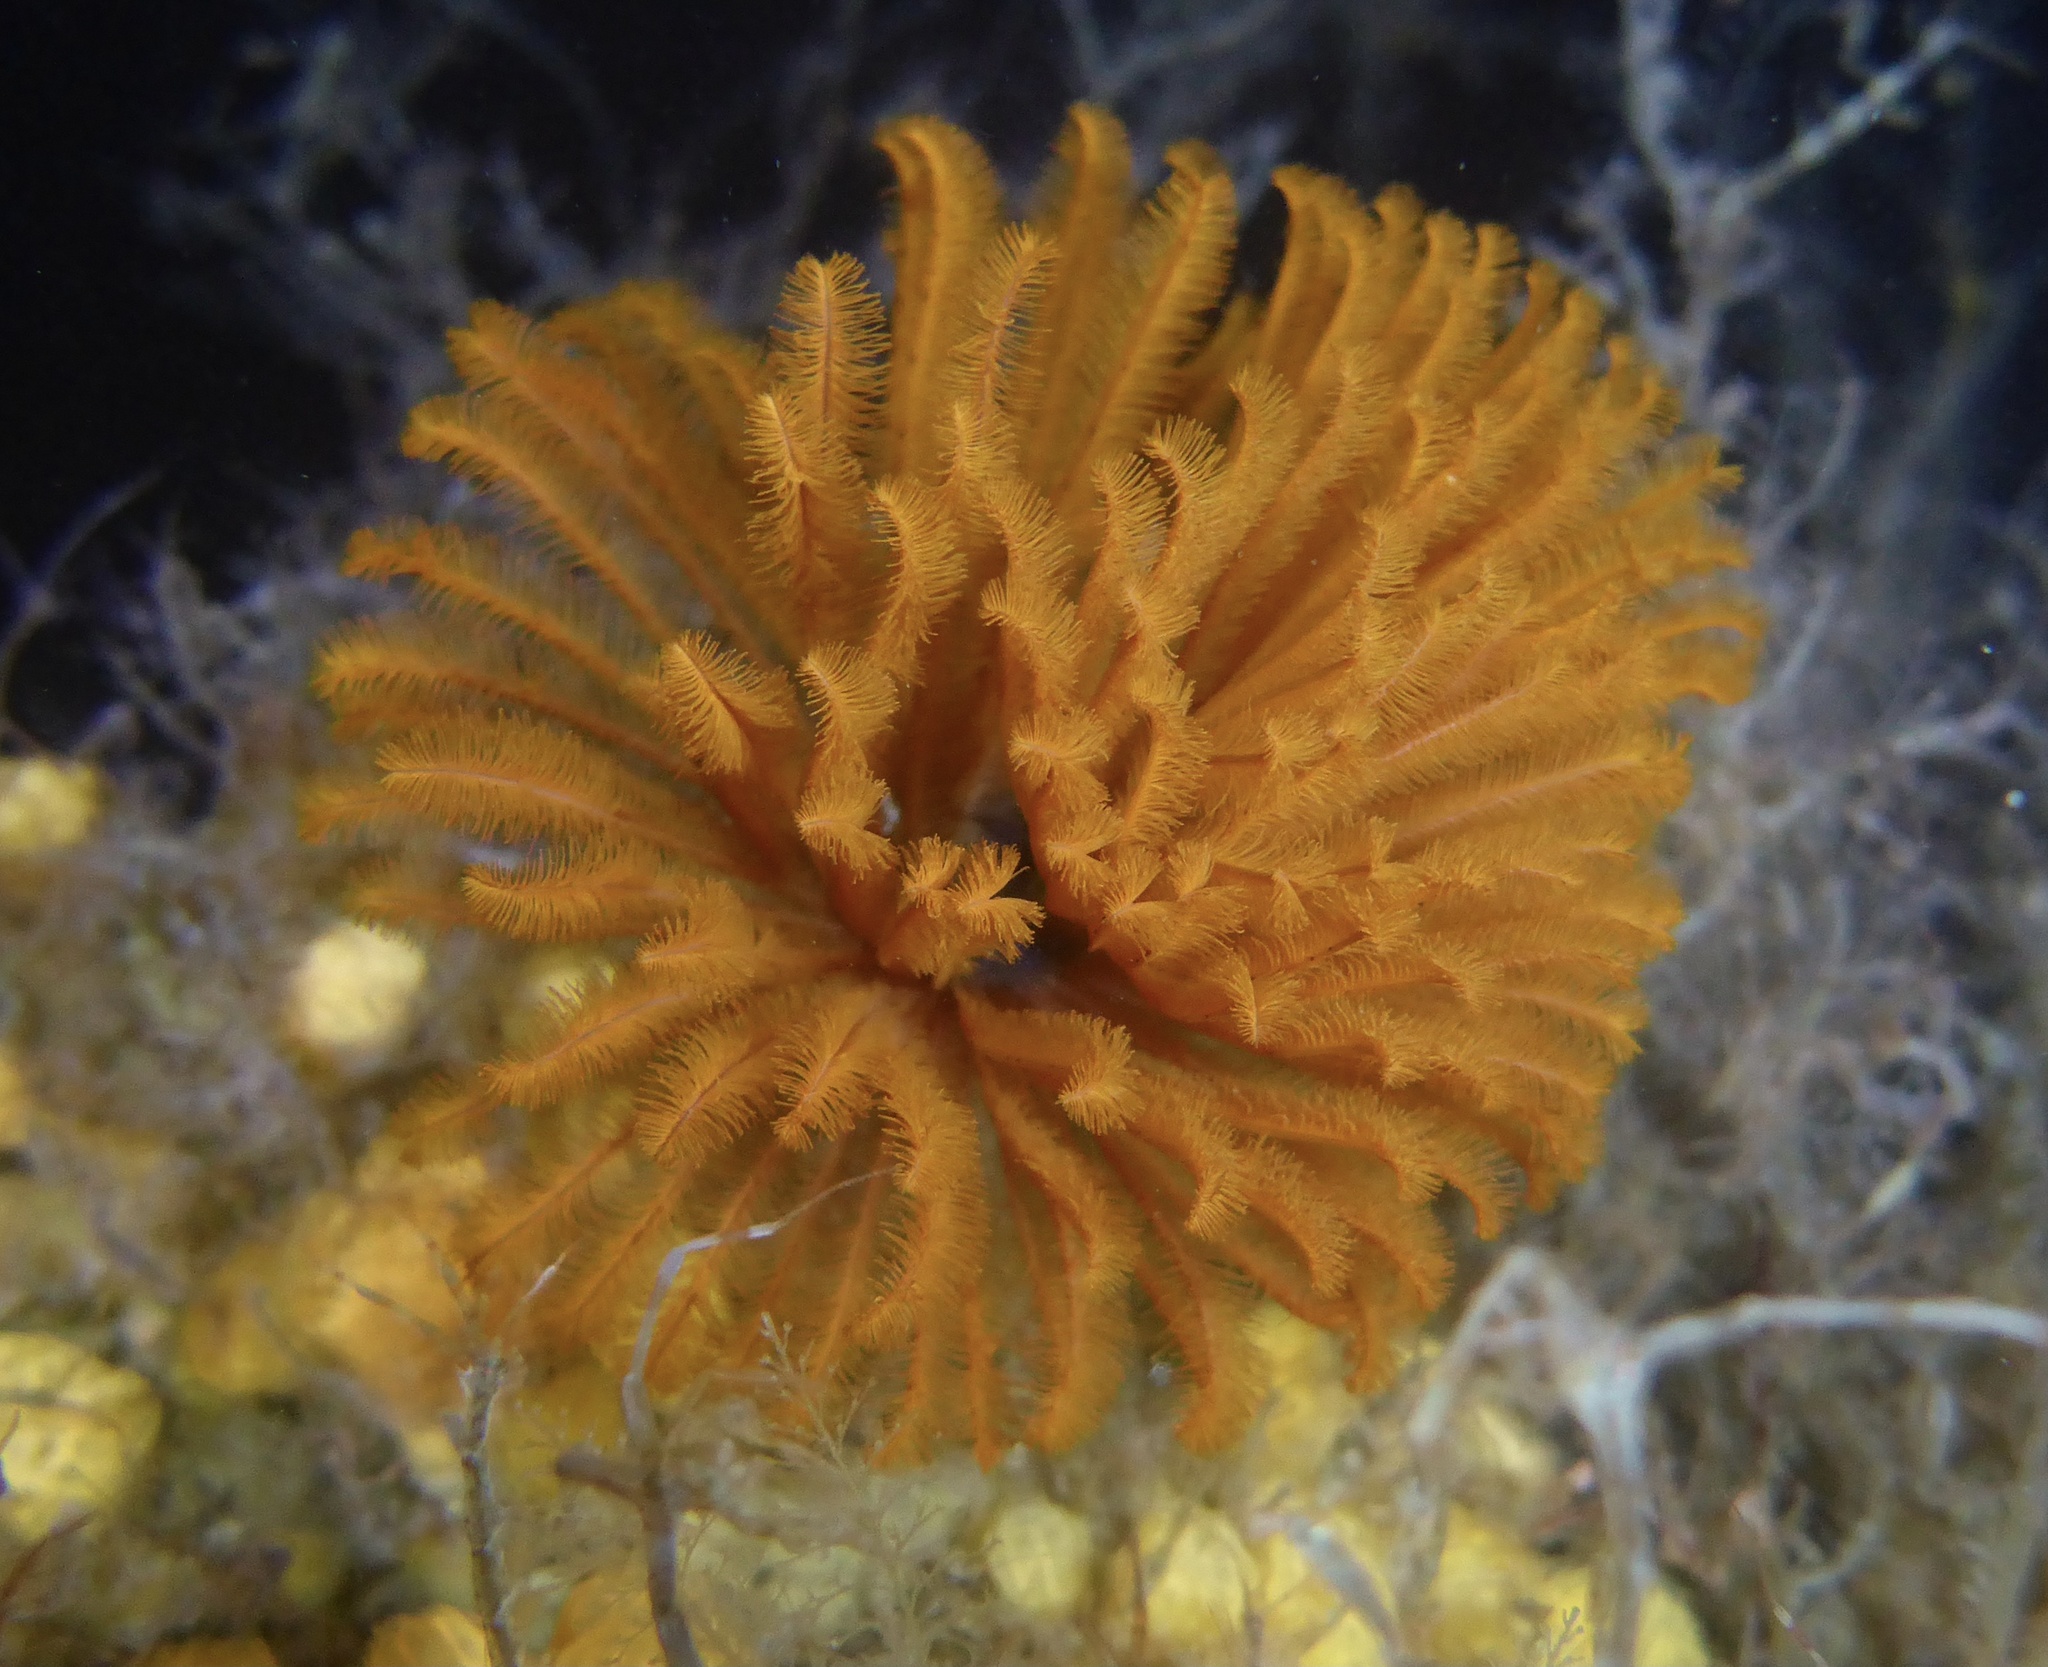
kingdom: Animalia
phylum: Annelida
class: Polychaeta
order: Sabellida
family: Sabellidae
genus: Eudistylia
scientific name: Eudistylia polymorpha
